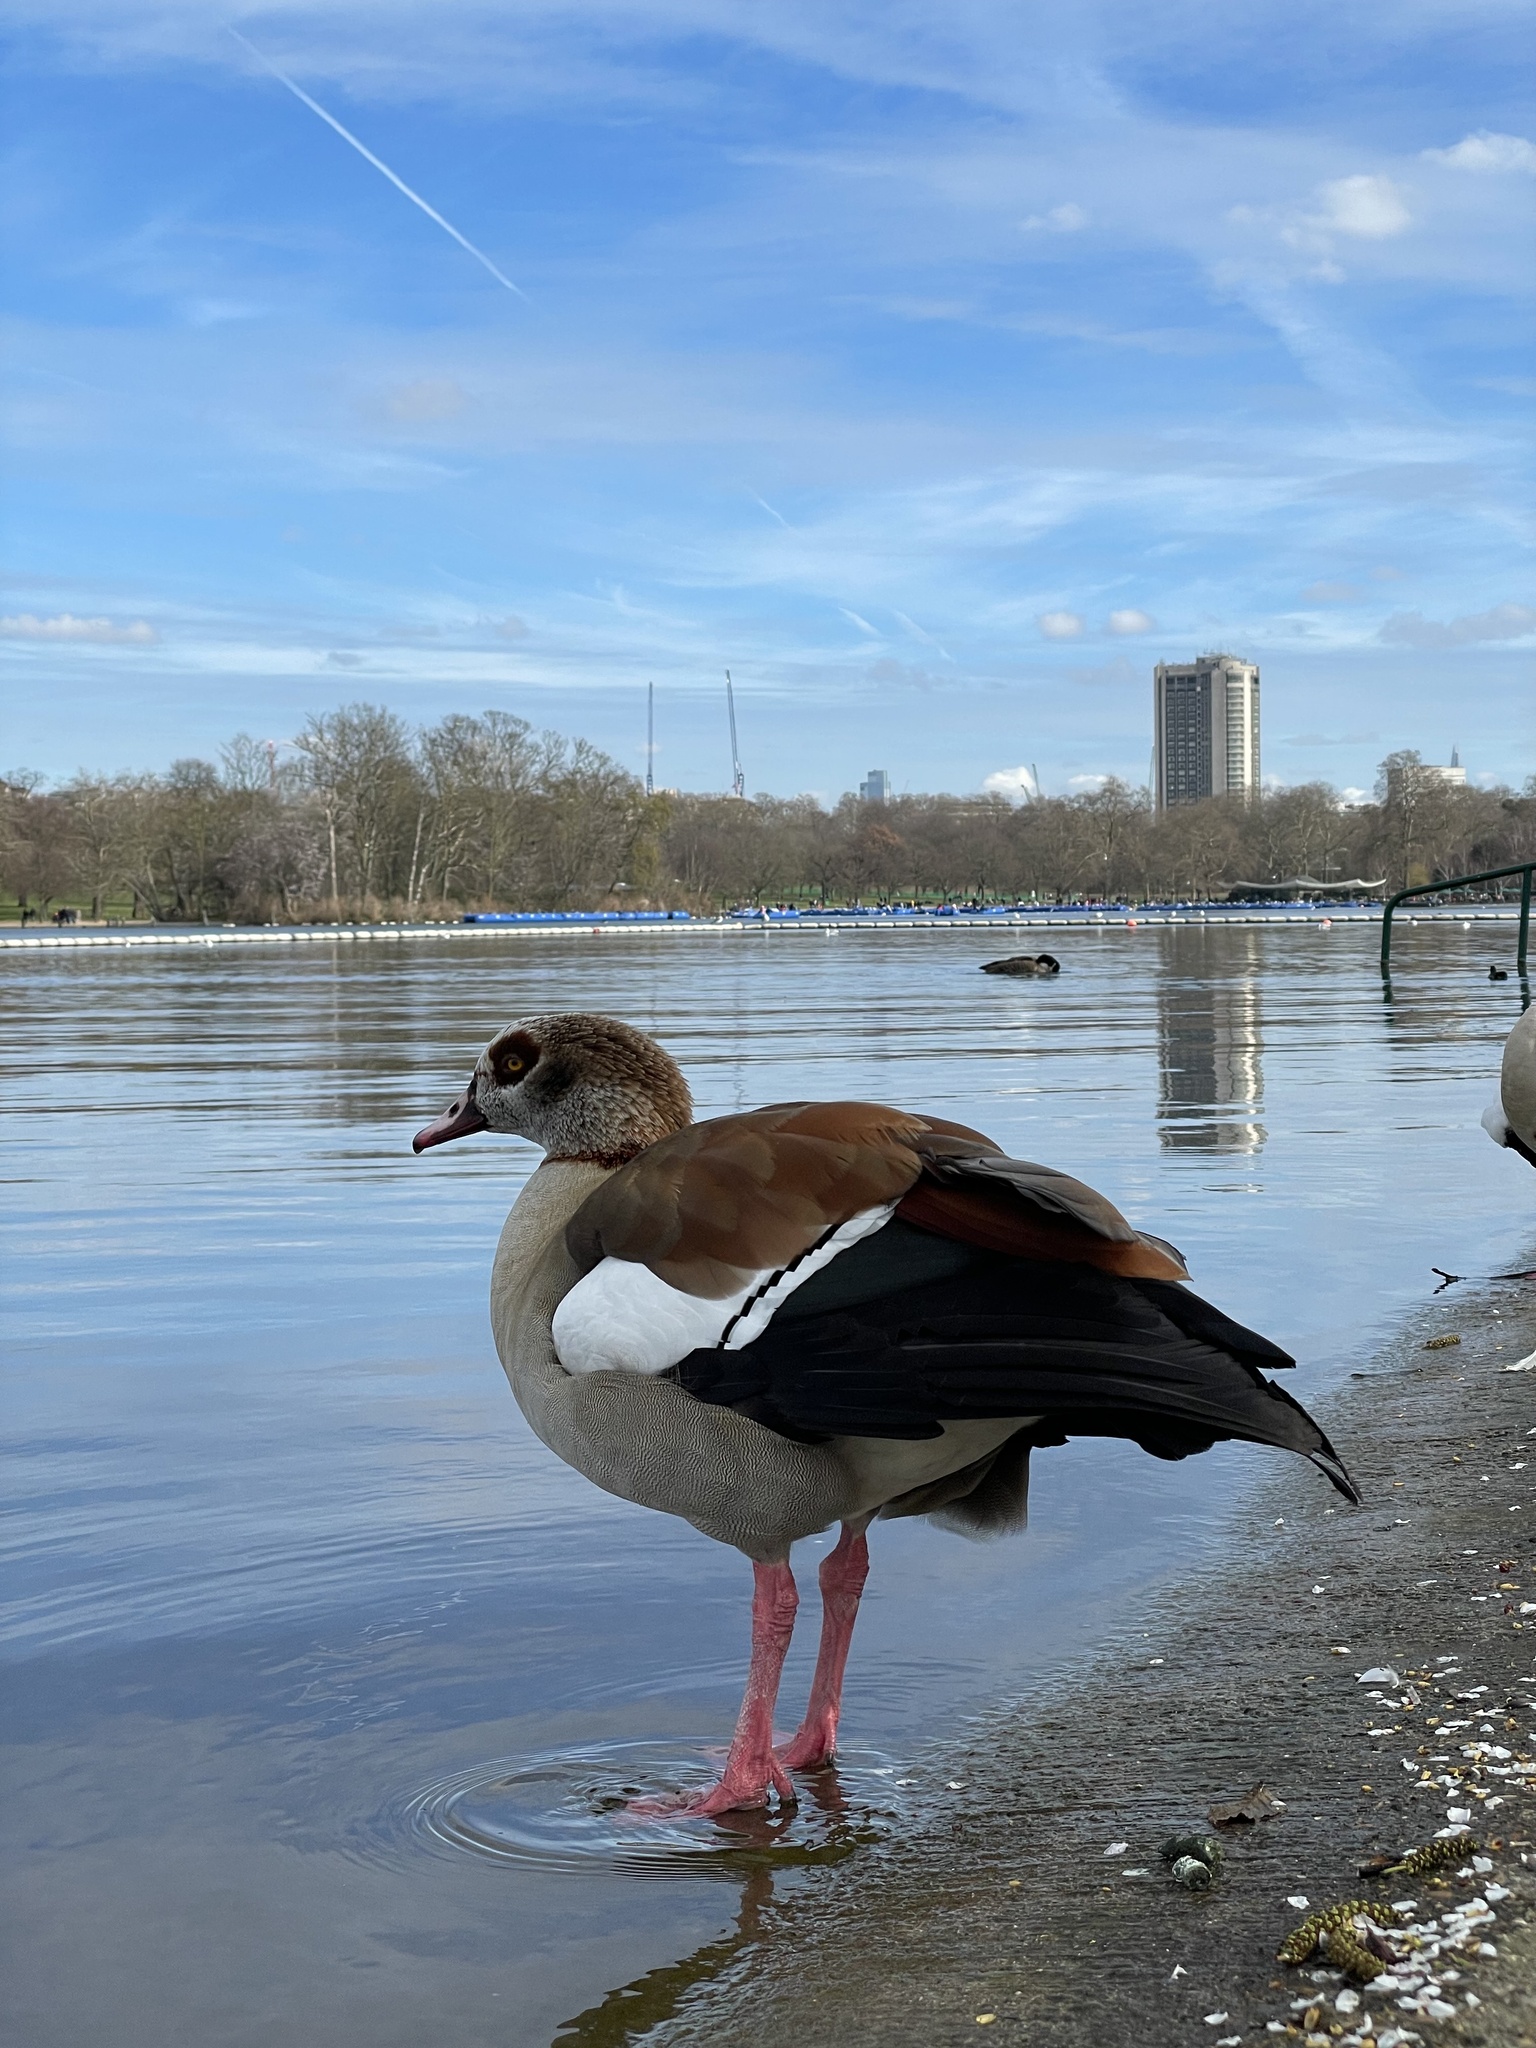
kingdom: Animalia
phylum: Chordata
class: Aves
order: Anseriformes
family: Anatidae
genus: Alopochen
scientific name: Alopochen aegyptiaca
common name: Egyptian goose
